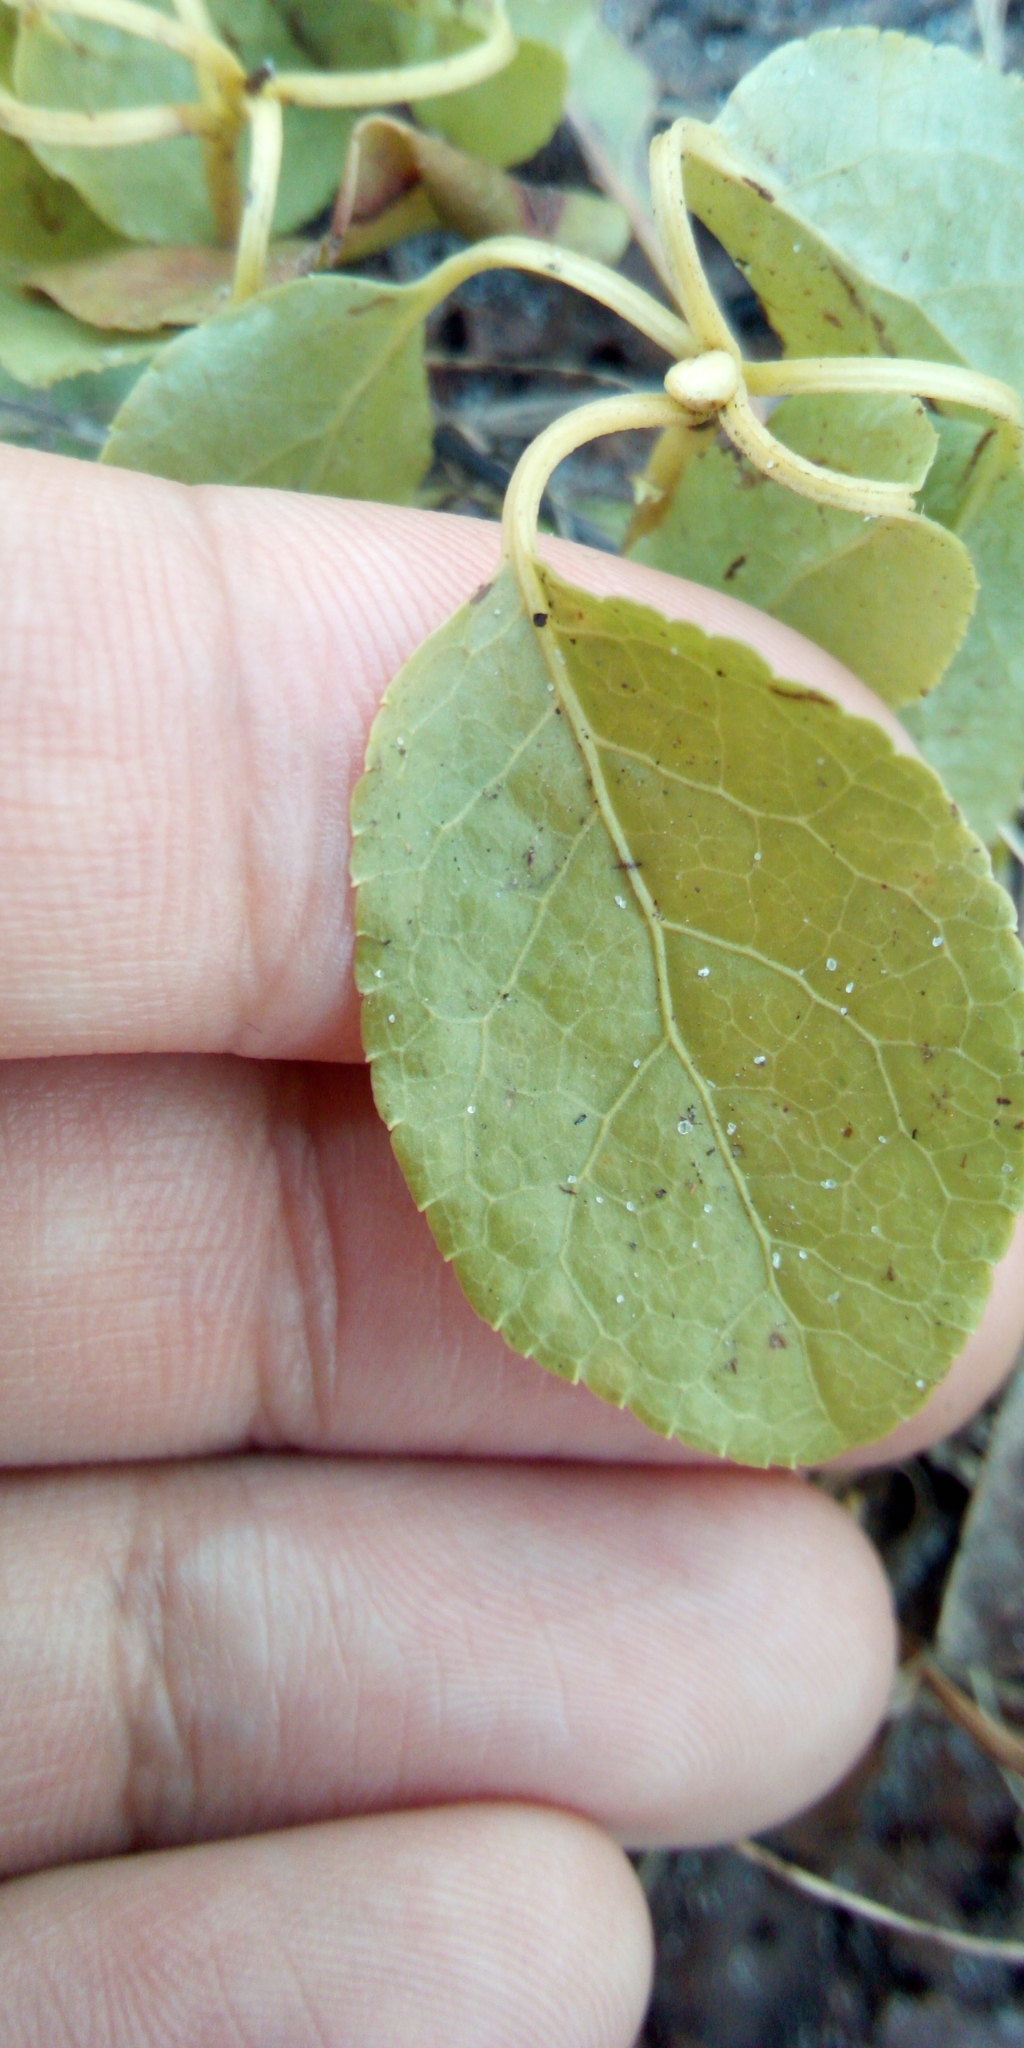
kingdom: Plantae
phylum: Tracheophyta
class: Magnoliopsida
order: Ericales
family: Ericaceae
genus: Orthilia
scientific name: Orthilia secunda
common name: One-sided orthilia
